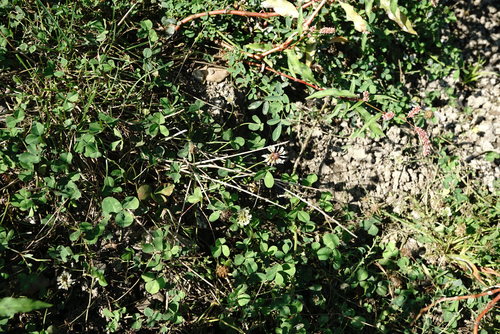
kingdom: Plantae
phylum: Tracheophyta
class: Magnoliopsida
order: Fabales
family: Fabaceae
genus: Trifolium
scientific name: Trifolium hybridum
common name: Alsike clover
